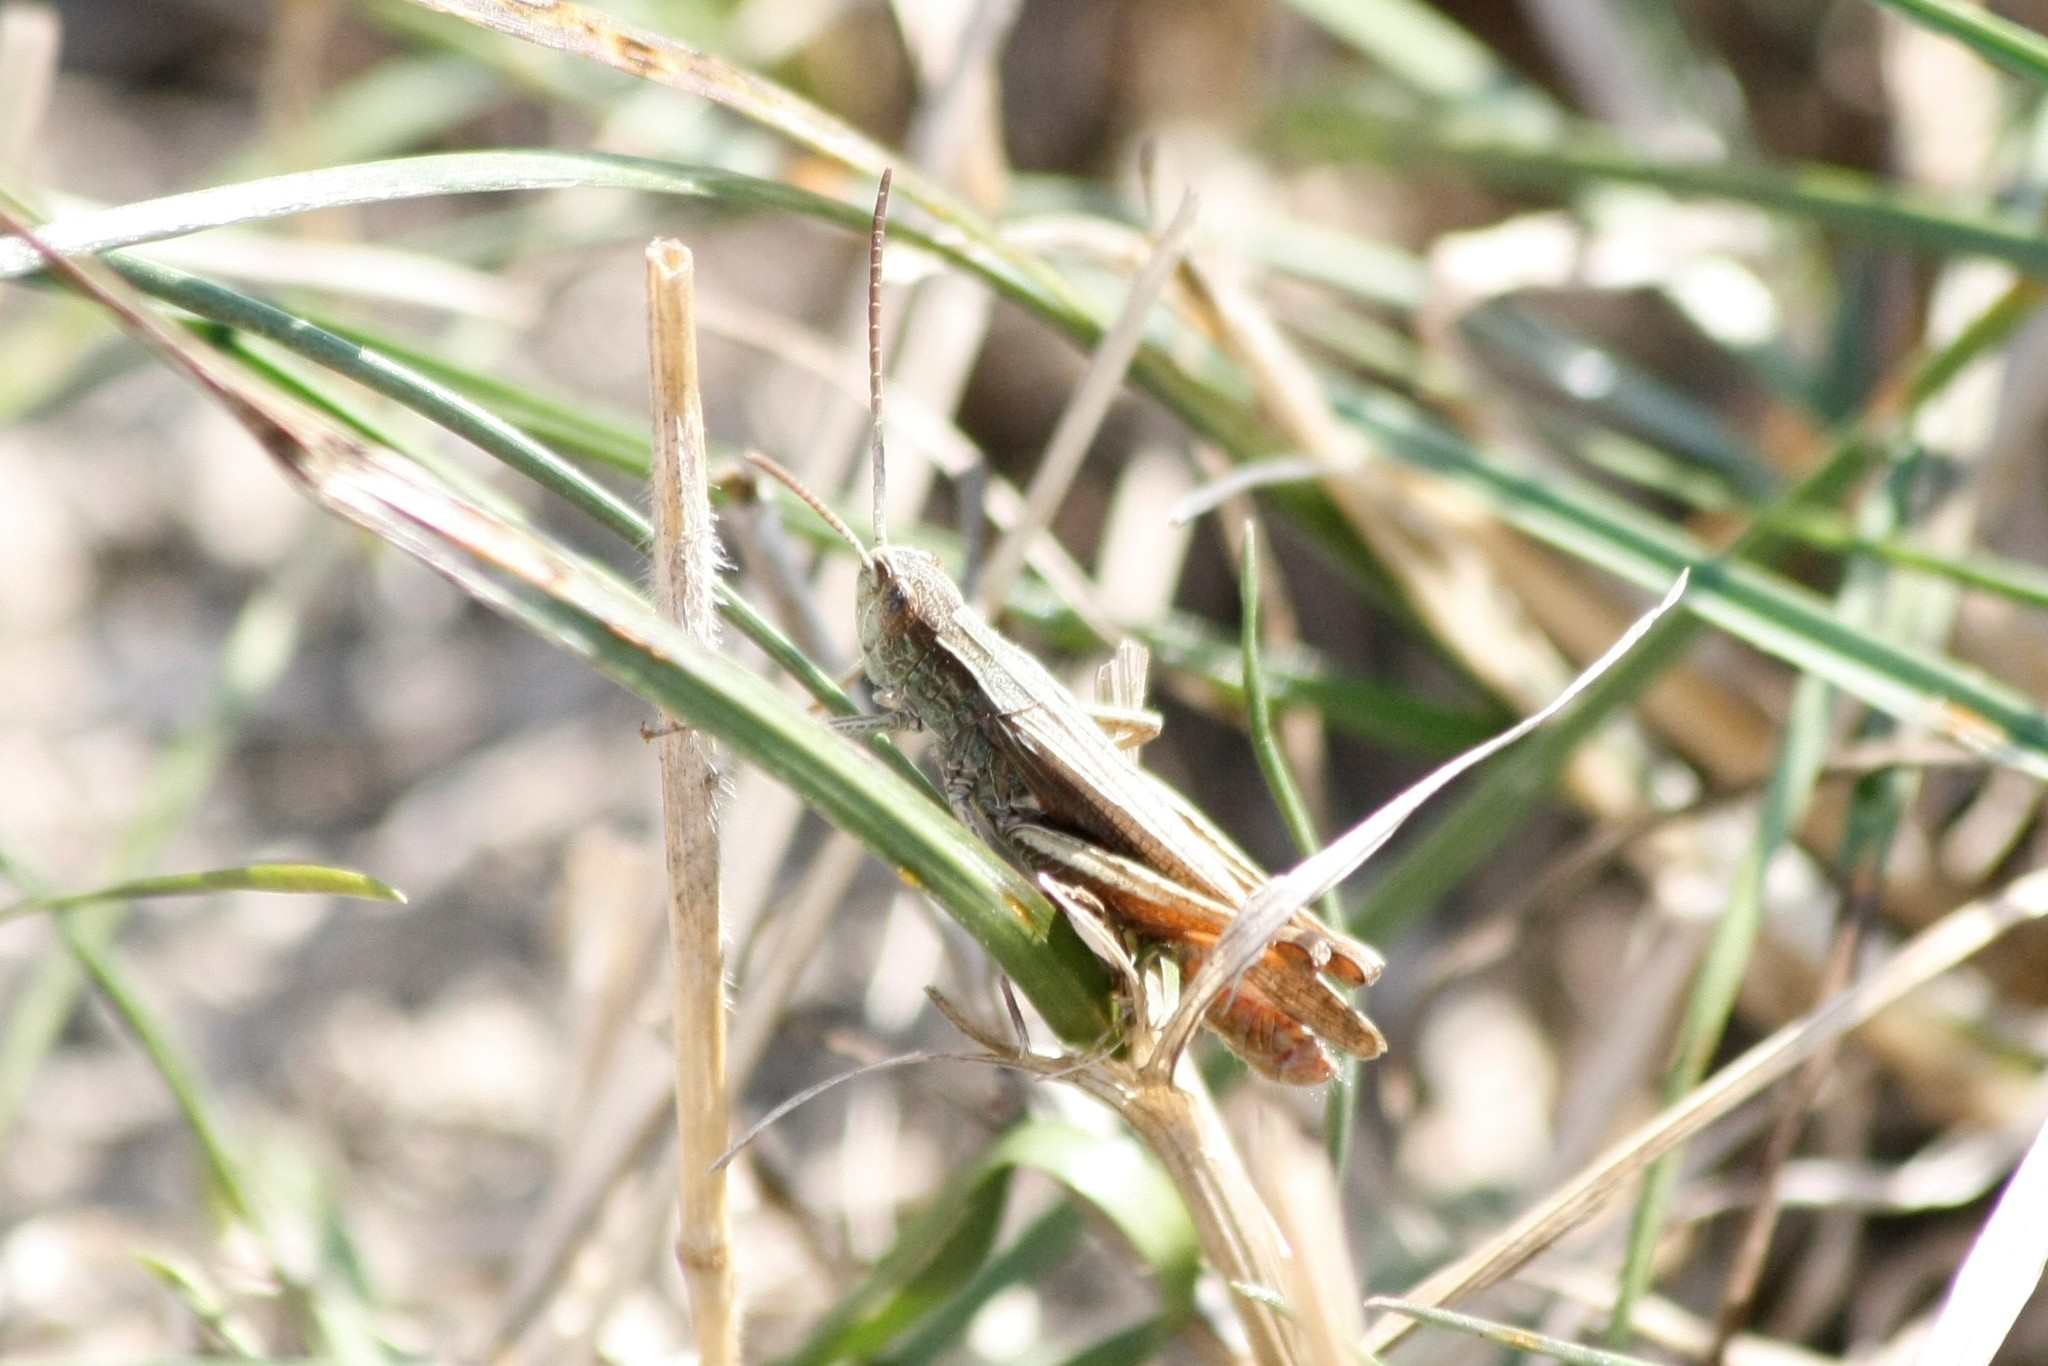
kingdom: Animalia
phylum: Arthropoda
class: Insecta
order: Orthoptera
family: Acrididae
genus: Chorthippus
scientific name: Chorthippus dorsatus
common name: Steppe grasshopper
